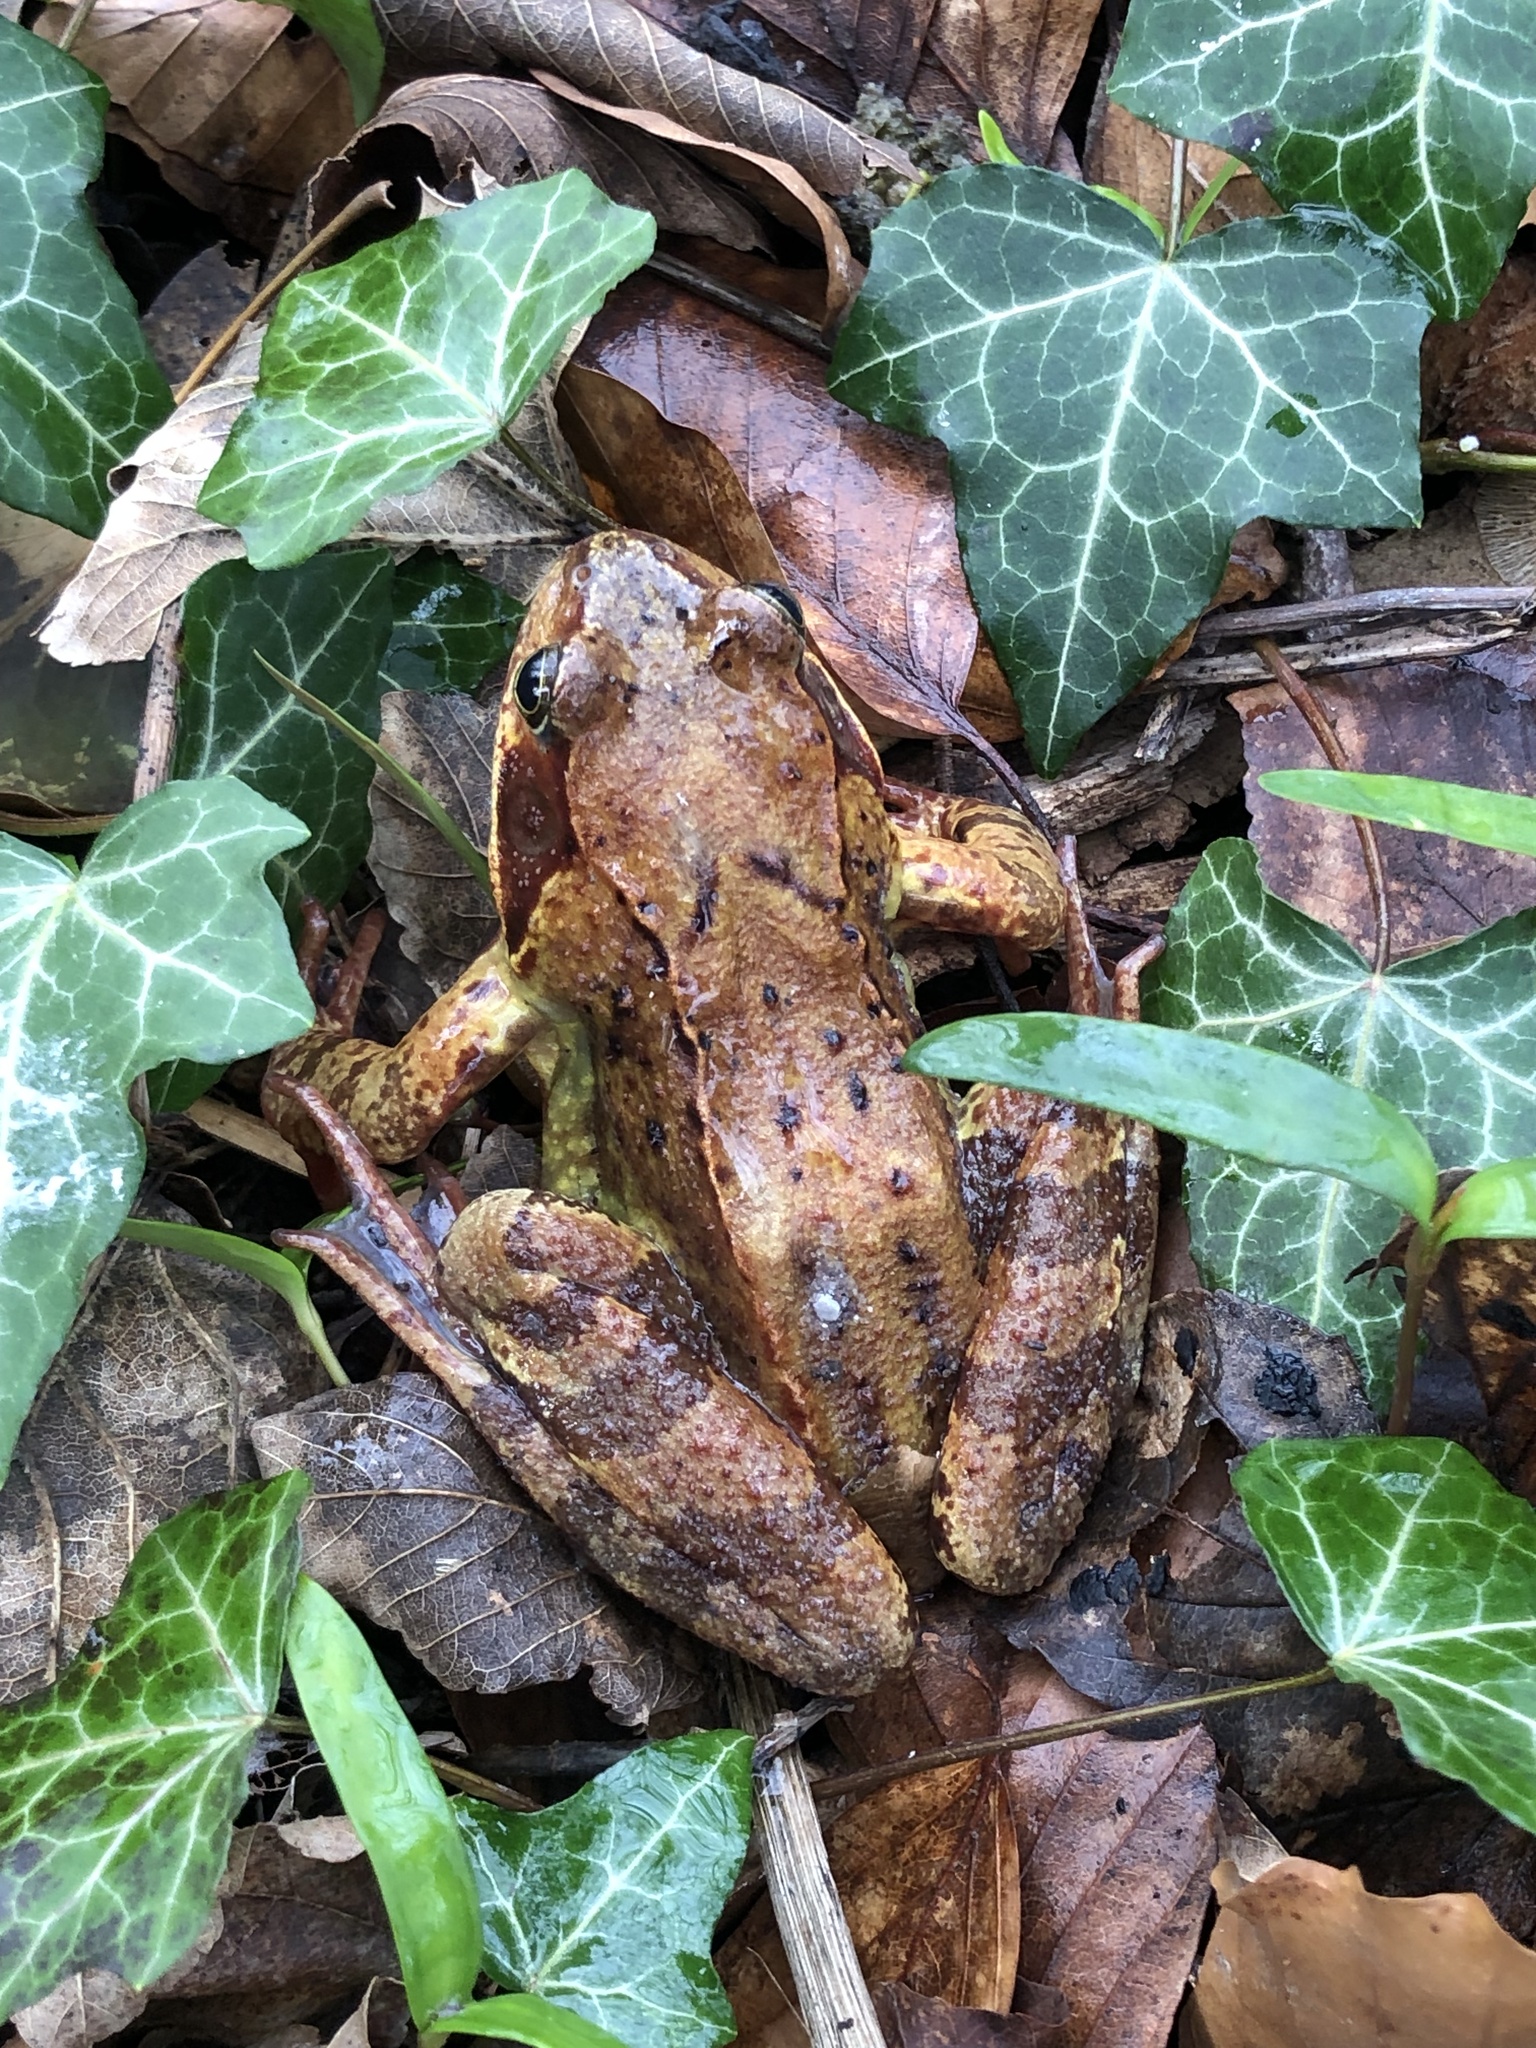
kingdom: Animalia
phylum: Chordata
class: Amphibia
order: Anura
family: Ranidae
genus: Rana
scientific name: Rana temporaria
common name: Common frog
